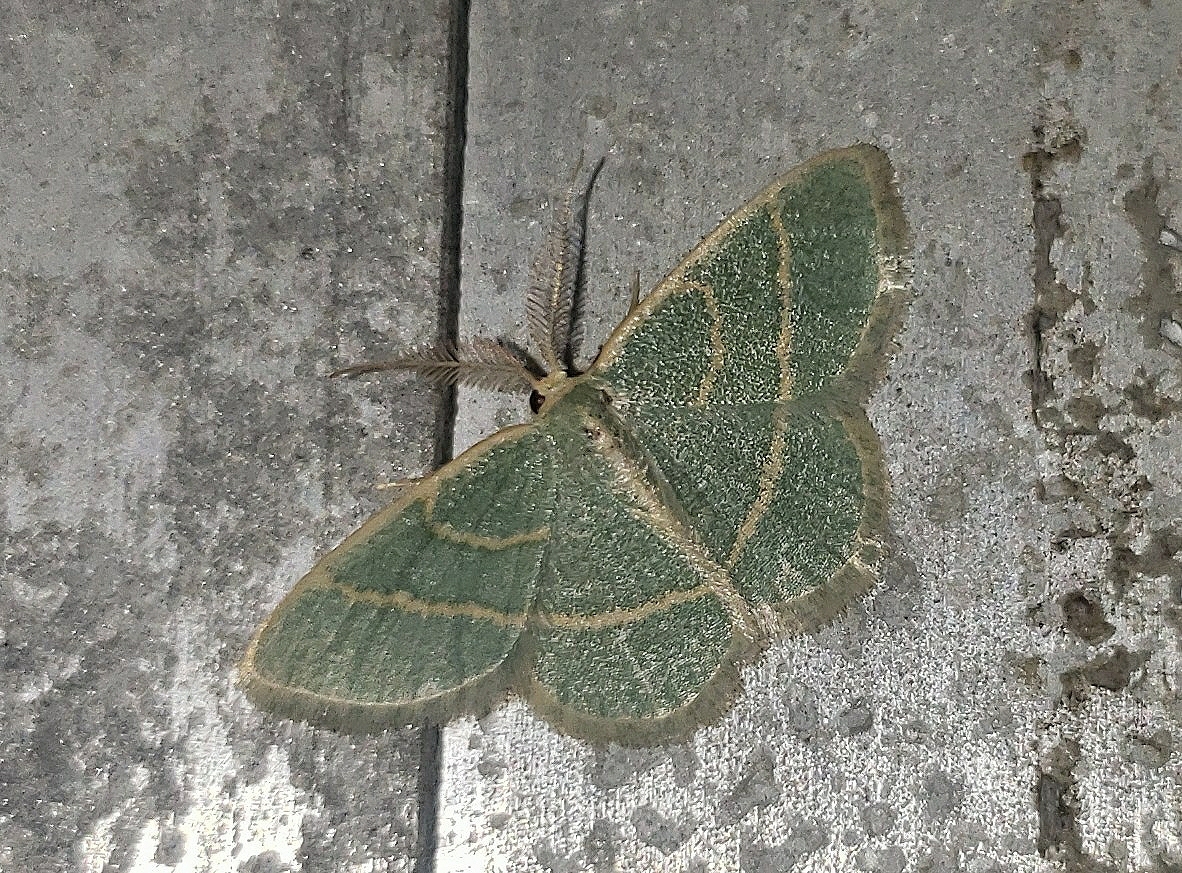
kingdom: Animalia
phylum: Arthropoda
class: Insecta
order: Lepidoptera
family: Geometridae
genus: Chlorochlamys
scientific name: Chlorochlamys chloroleucaria
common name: Blackberry looper
